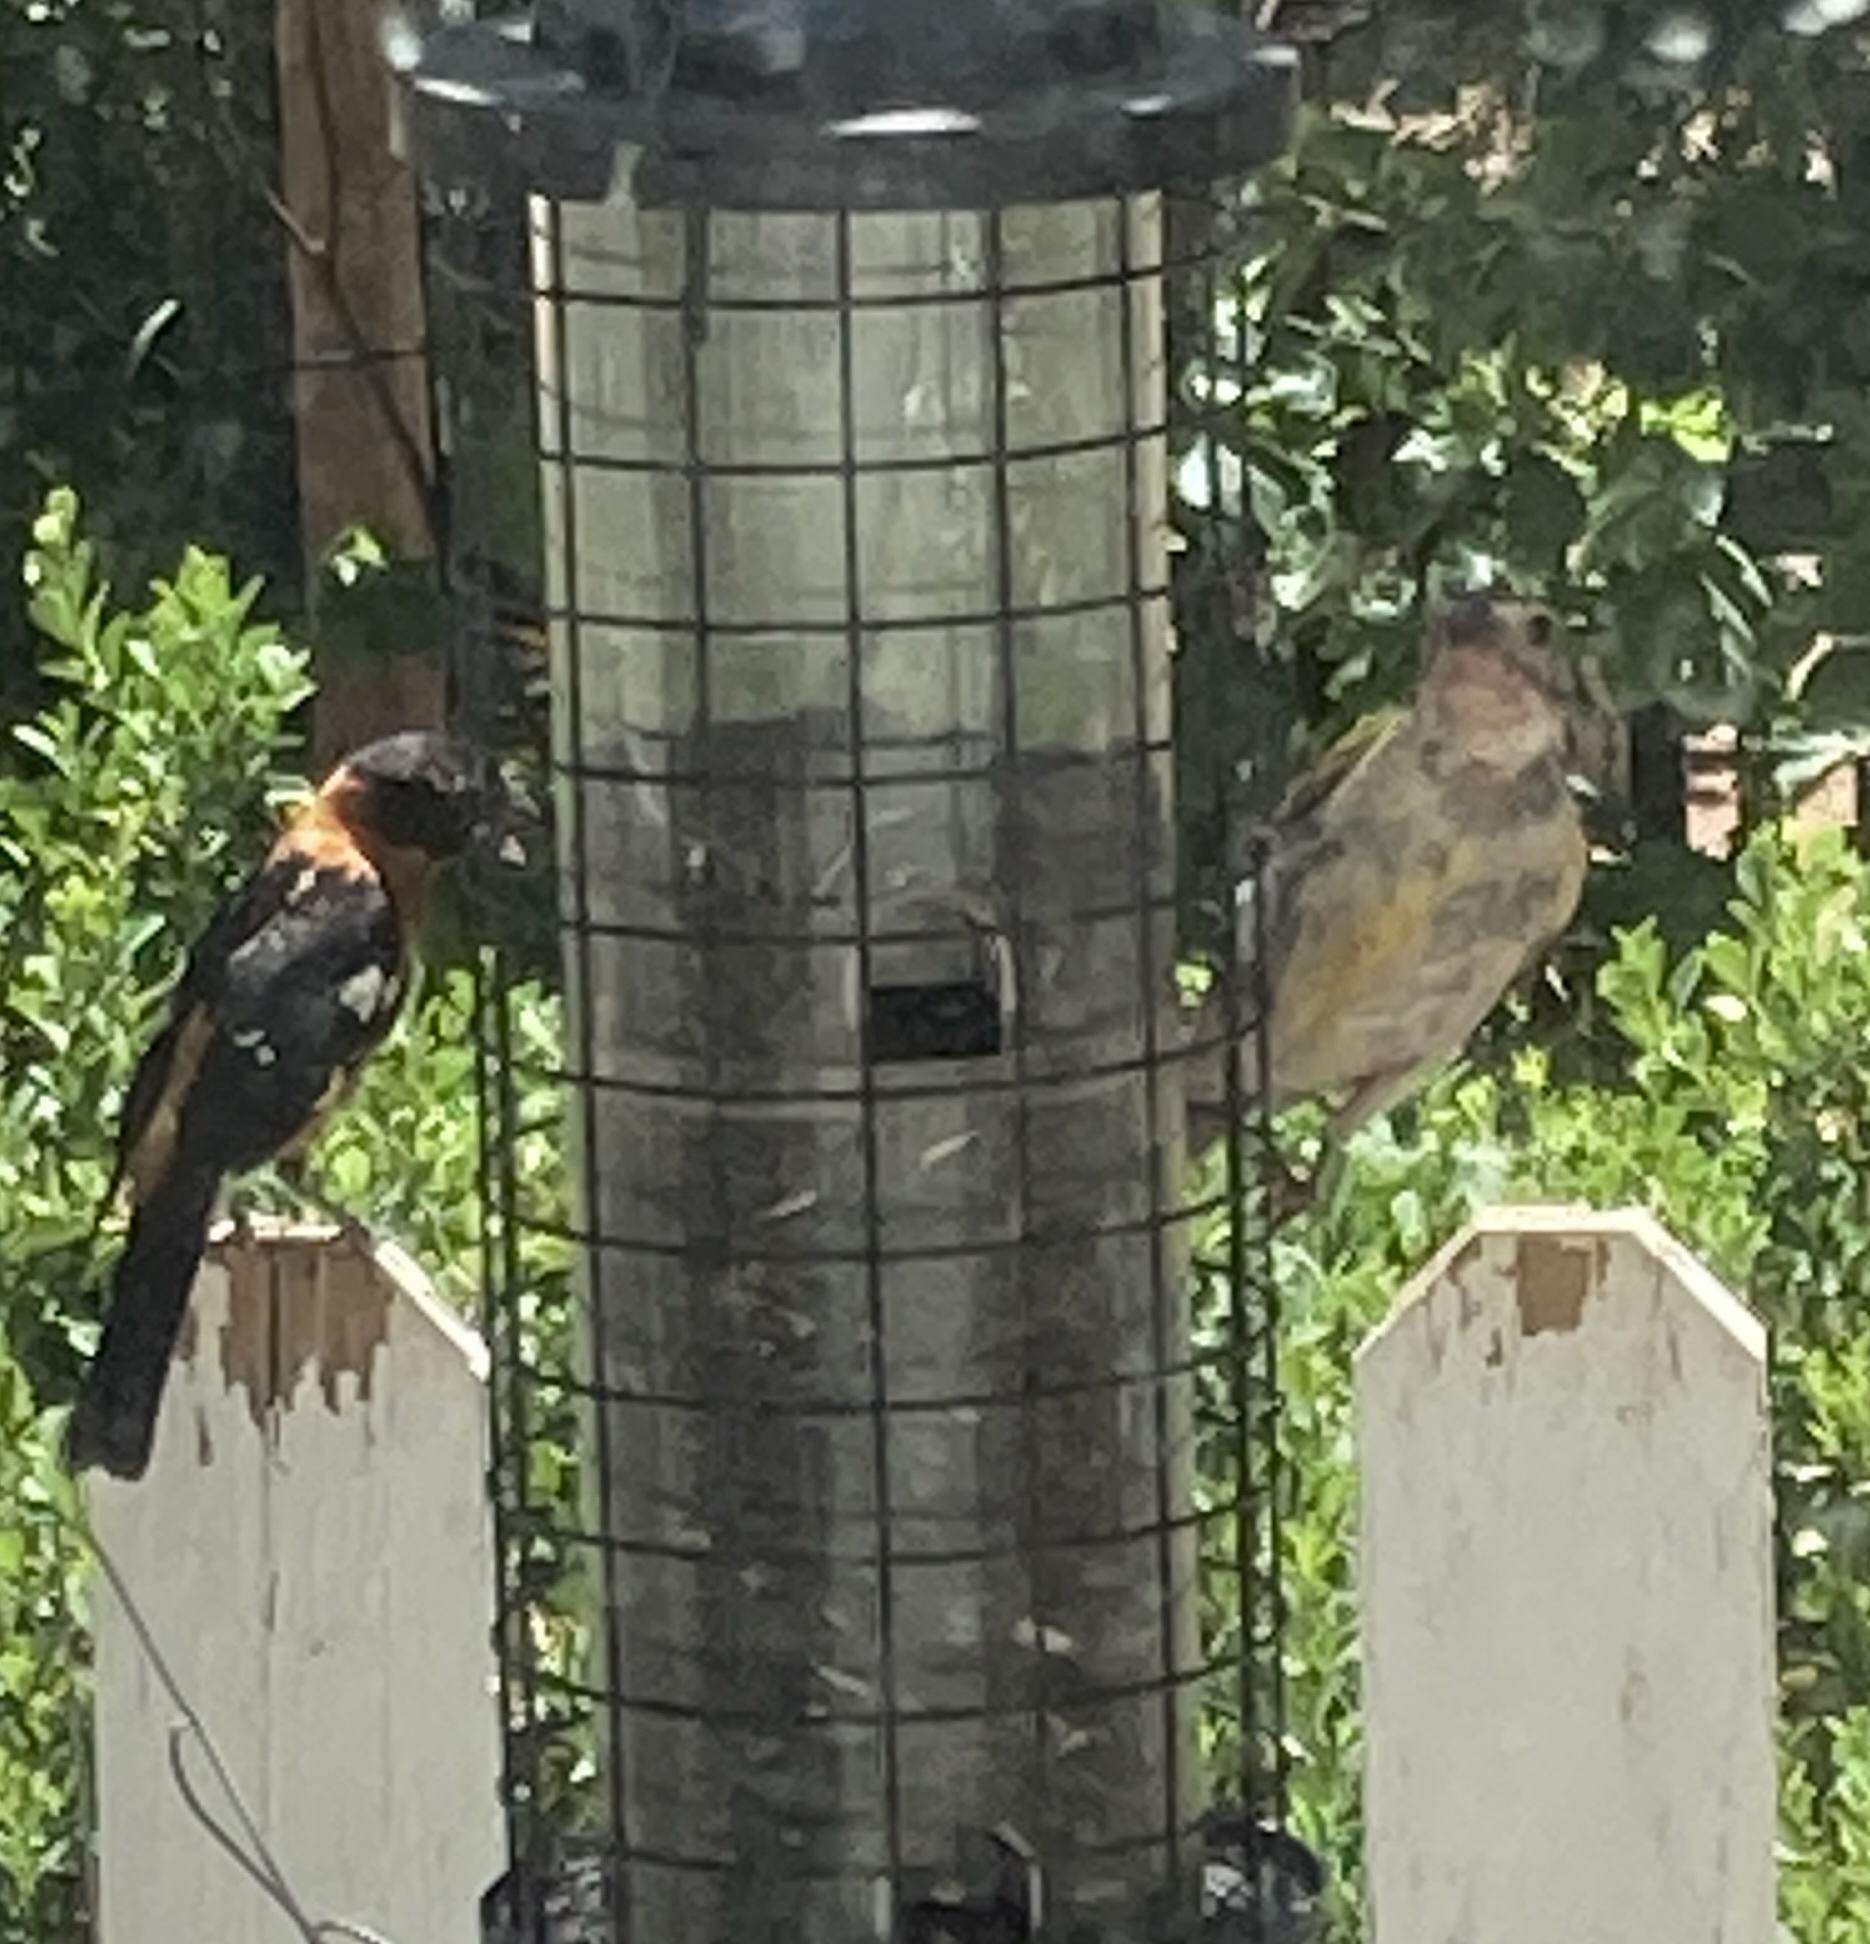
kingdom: Animalia
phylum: Chordata
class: Aves
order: Passeriformes
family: Cardinalidae
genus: Pheucticus
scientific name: Pheucticus melanocephalus
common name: Black-headed grosbeak
